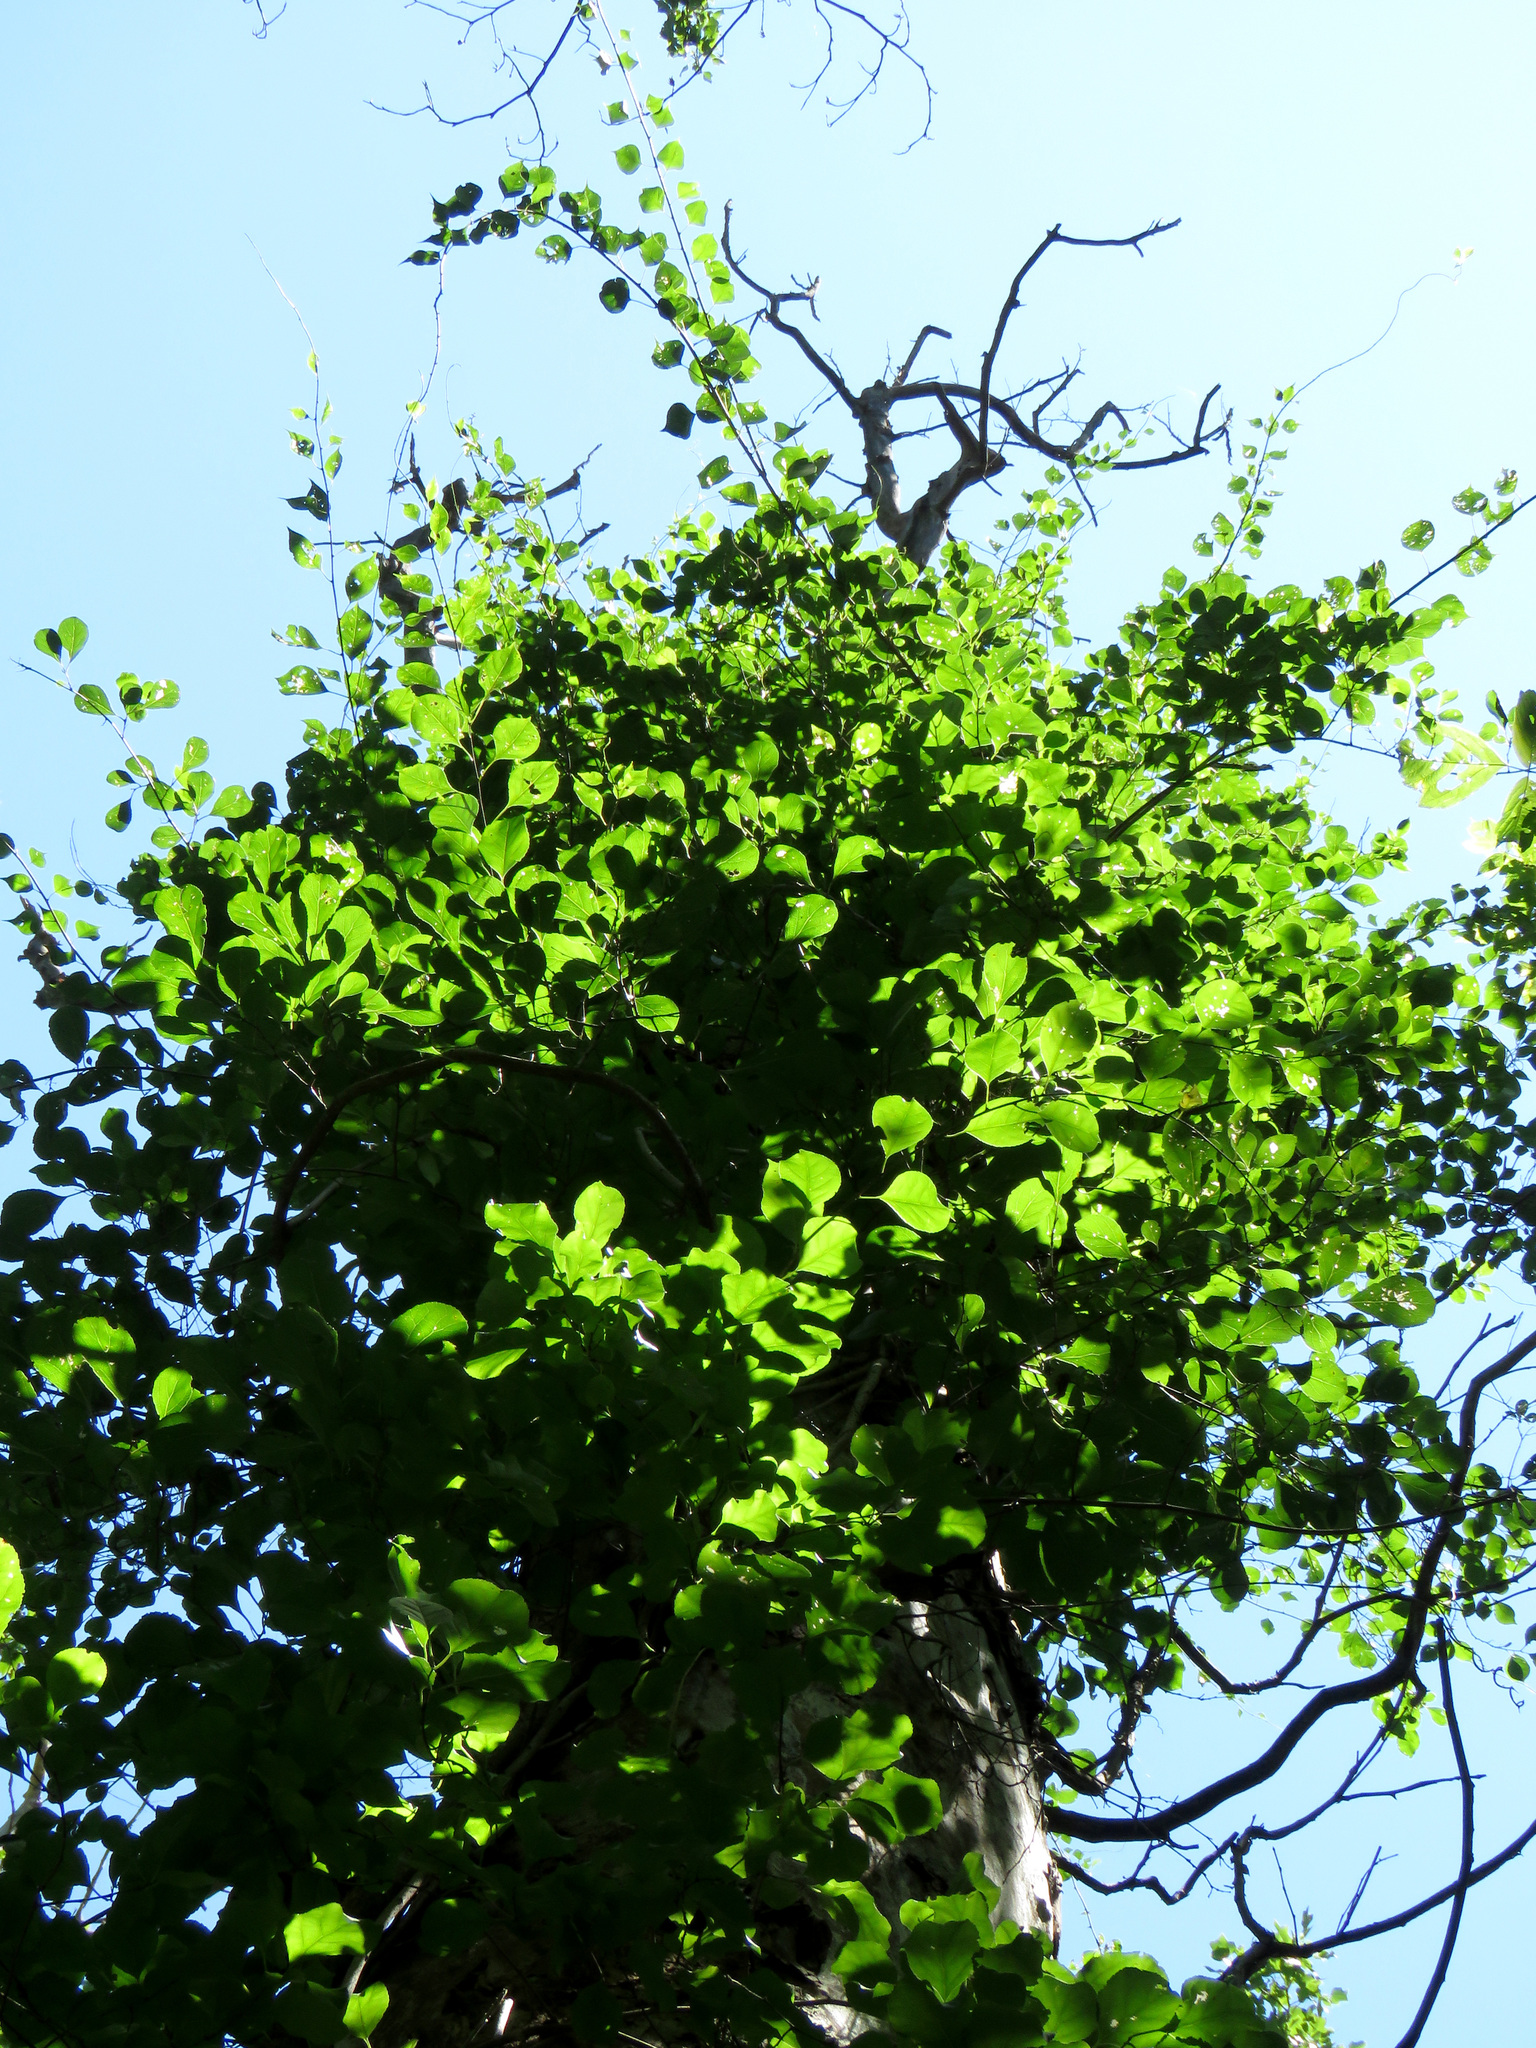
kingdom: Plantae
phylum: Tracheophyta
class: Magnoliopsida
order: Celastrales
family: Celastraceae
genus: Celastrus
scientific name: Celastrus orbiculatus
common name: Oriental bittersweet
